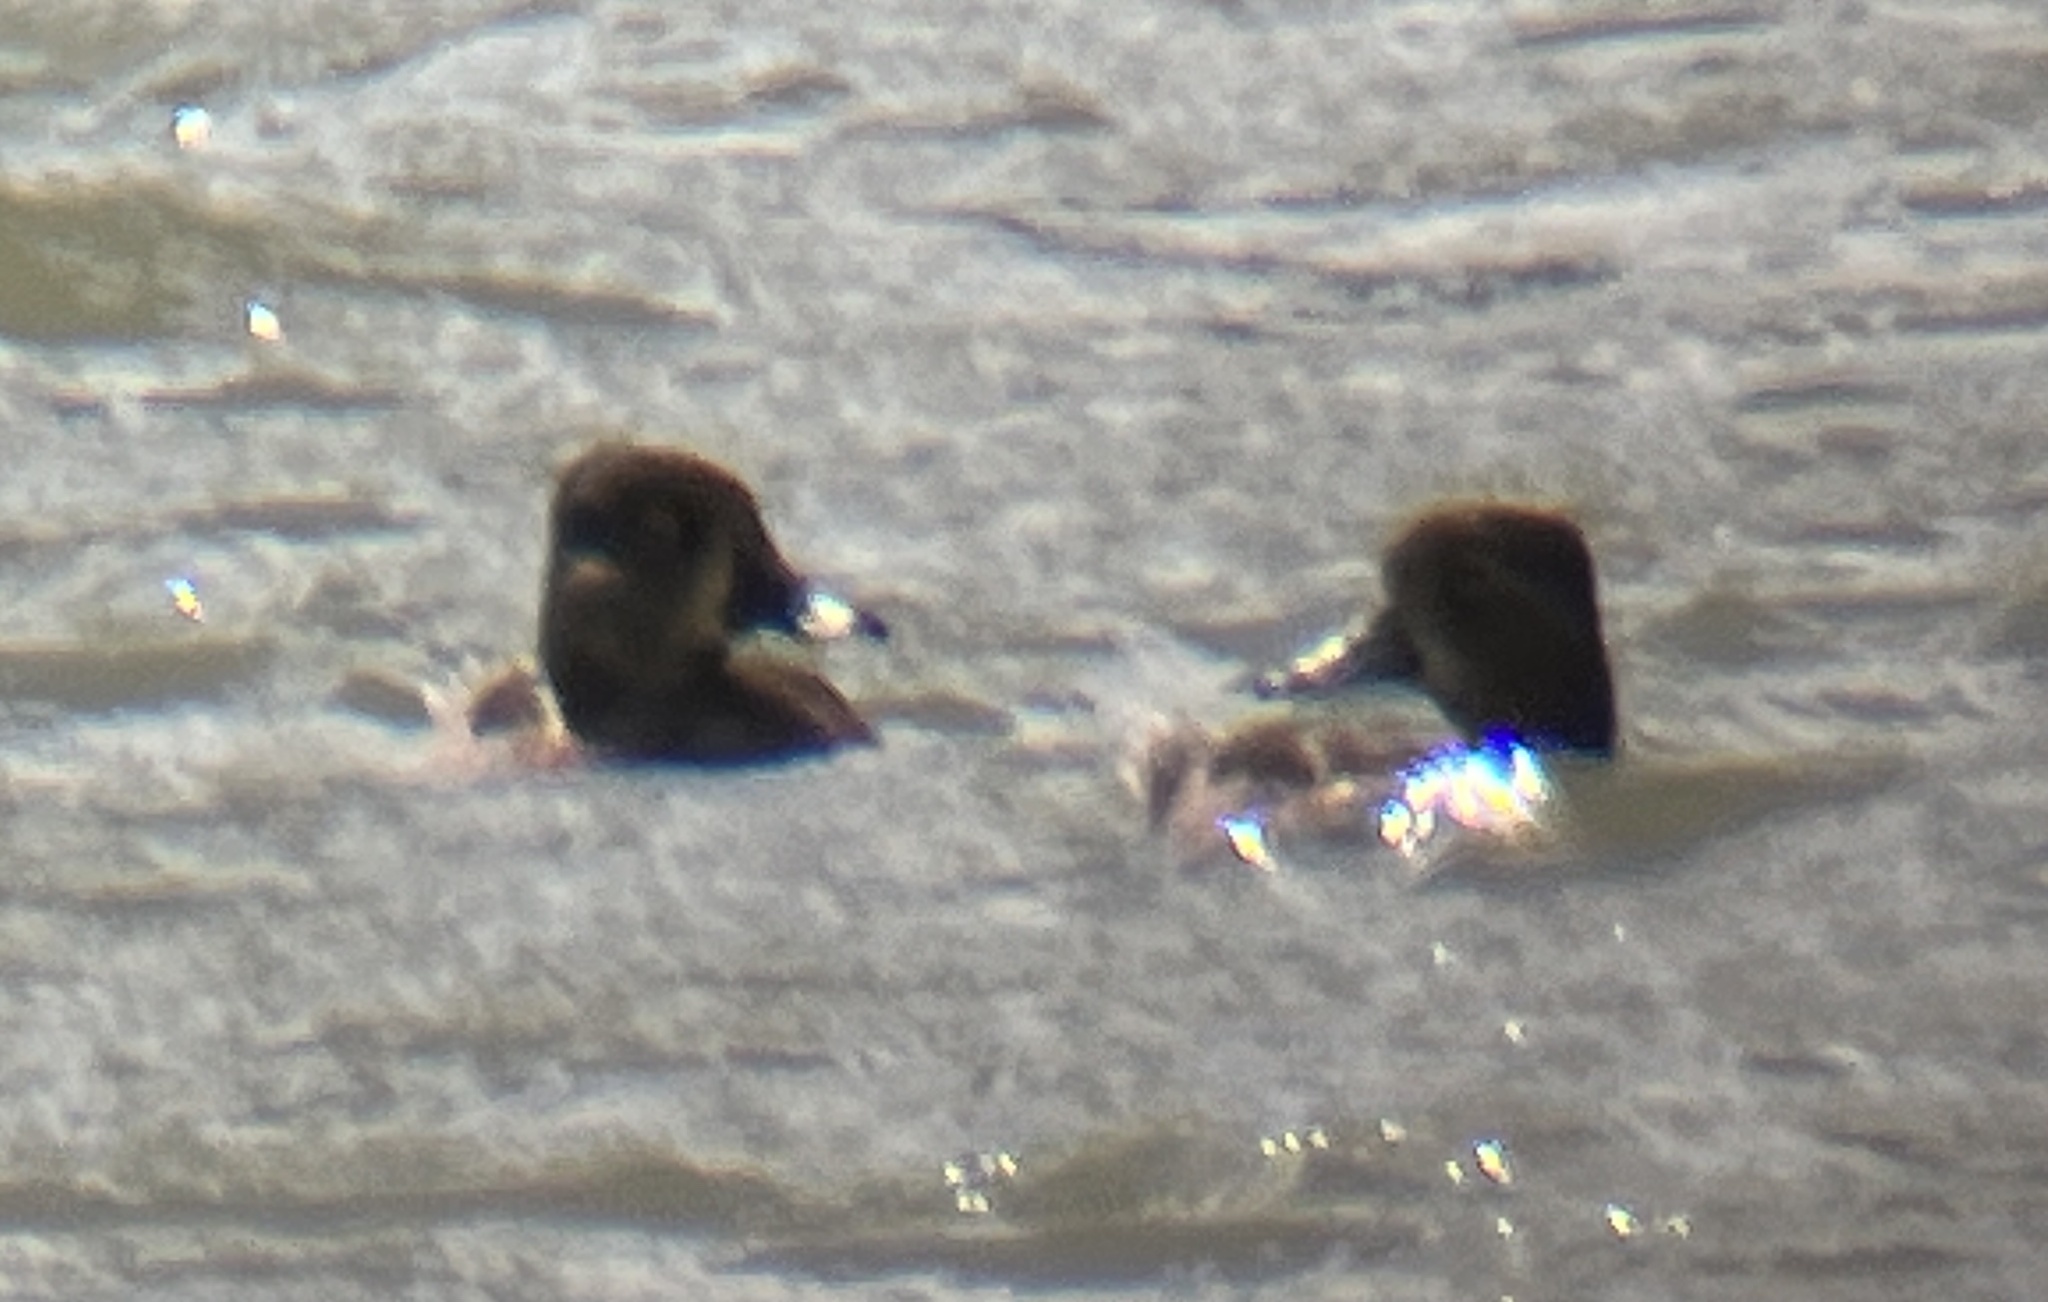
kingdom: Animalia
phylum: Chordata
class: Aves
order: Anseriformes
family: Anatidae
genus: Aythya
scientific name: Aythya collaris
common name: Ring-necked duck
